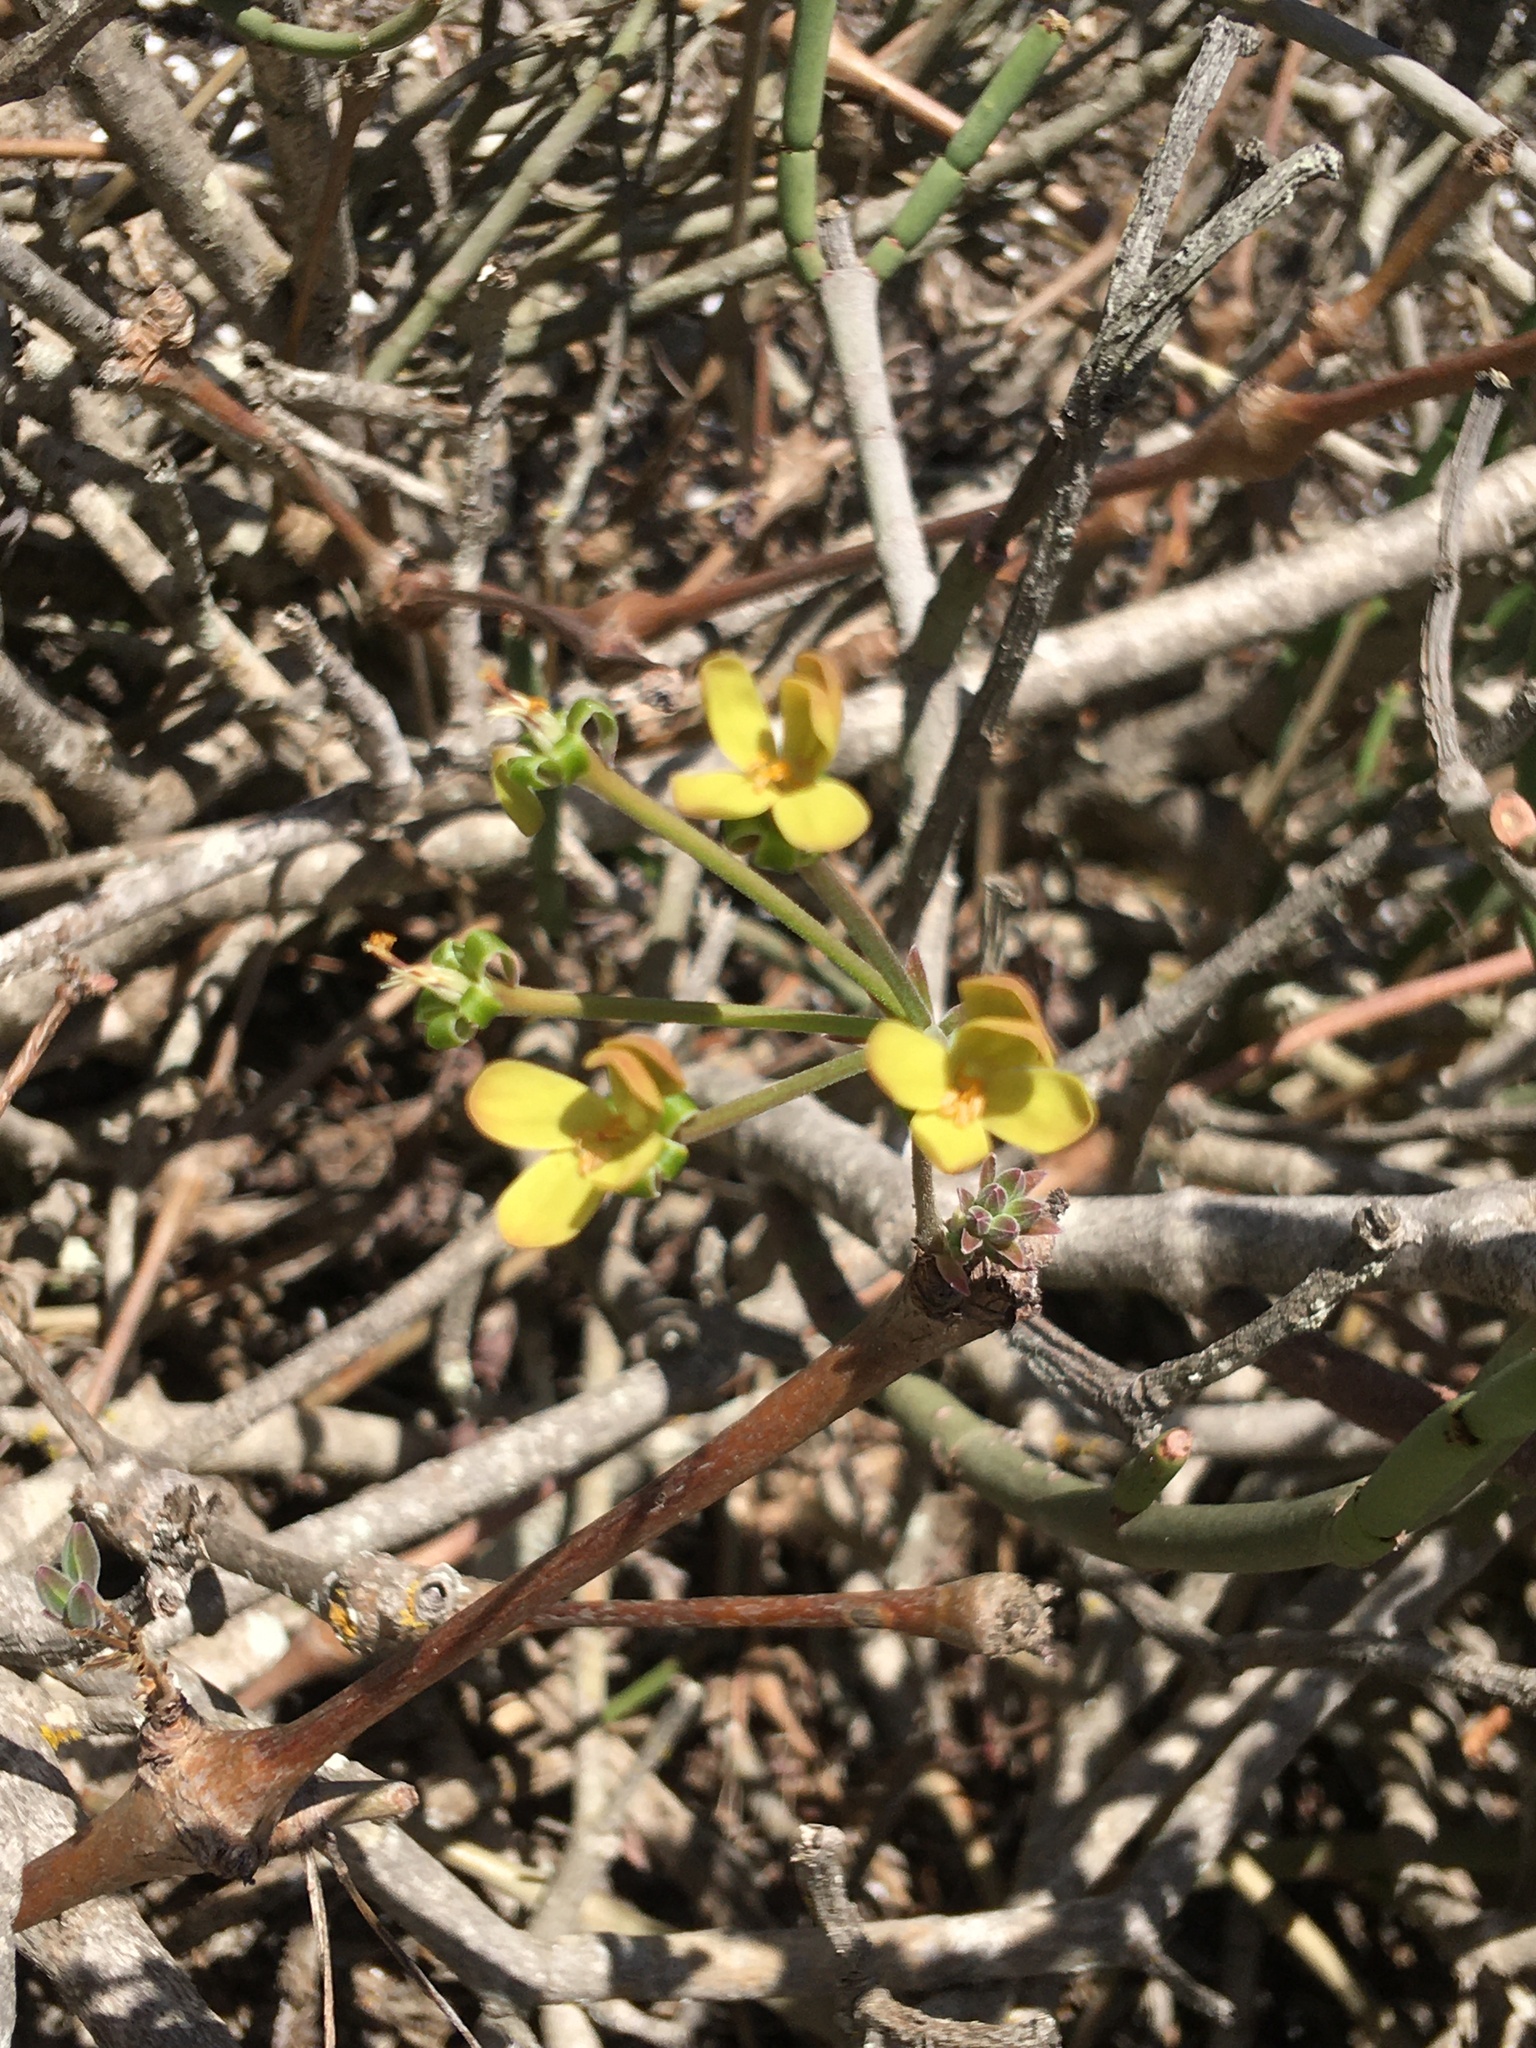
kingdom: Plantae
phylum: Tracheophyta
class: Magnoliopsida
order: Geraniales
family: Geraniaceae
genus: Pelargonium
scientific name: Pelargonium gibbosum
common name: Gouty geranium
